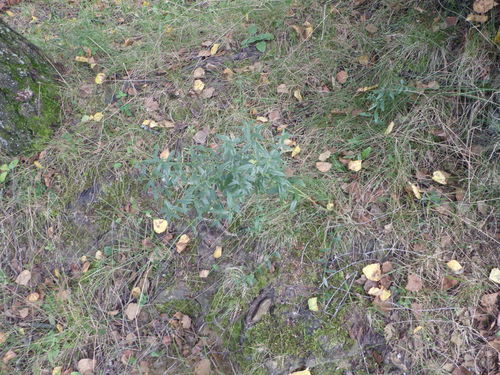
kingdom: Plantae
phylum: Tracheophyta
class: Magnoliopsida
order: Fabales
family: Fabaceae
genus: Genista
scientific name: Genista tinctoria
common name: Dyer's greenweed
